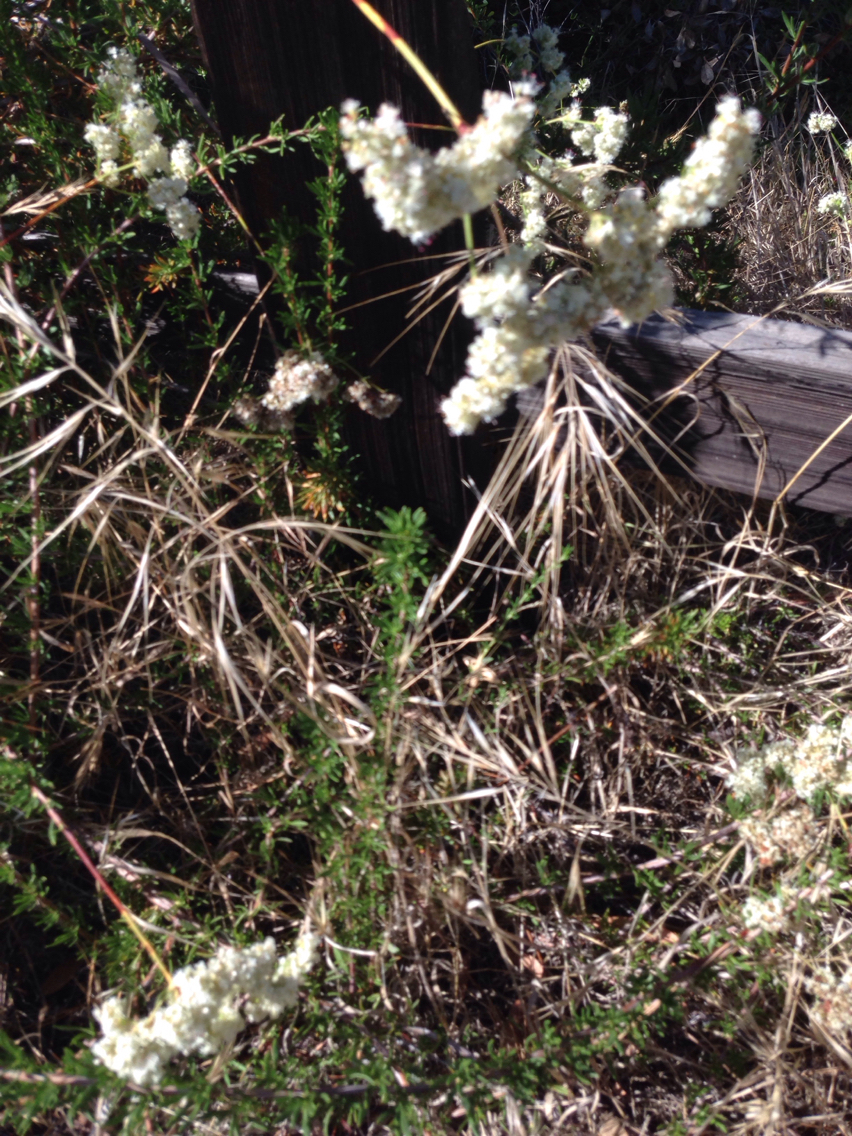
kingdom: Plantae
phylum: Tracheophyta
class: Liliopsida
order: Poales
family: Poaceae
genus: Bromus
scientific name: Bromus diandrus
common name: Ripgut brome
